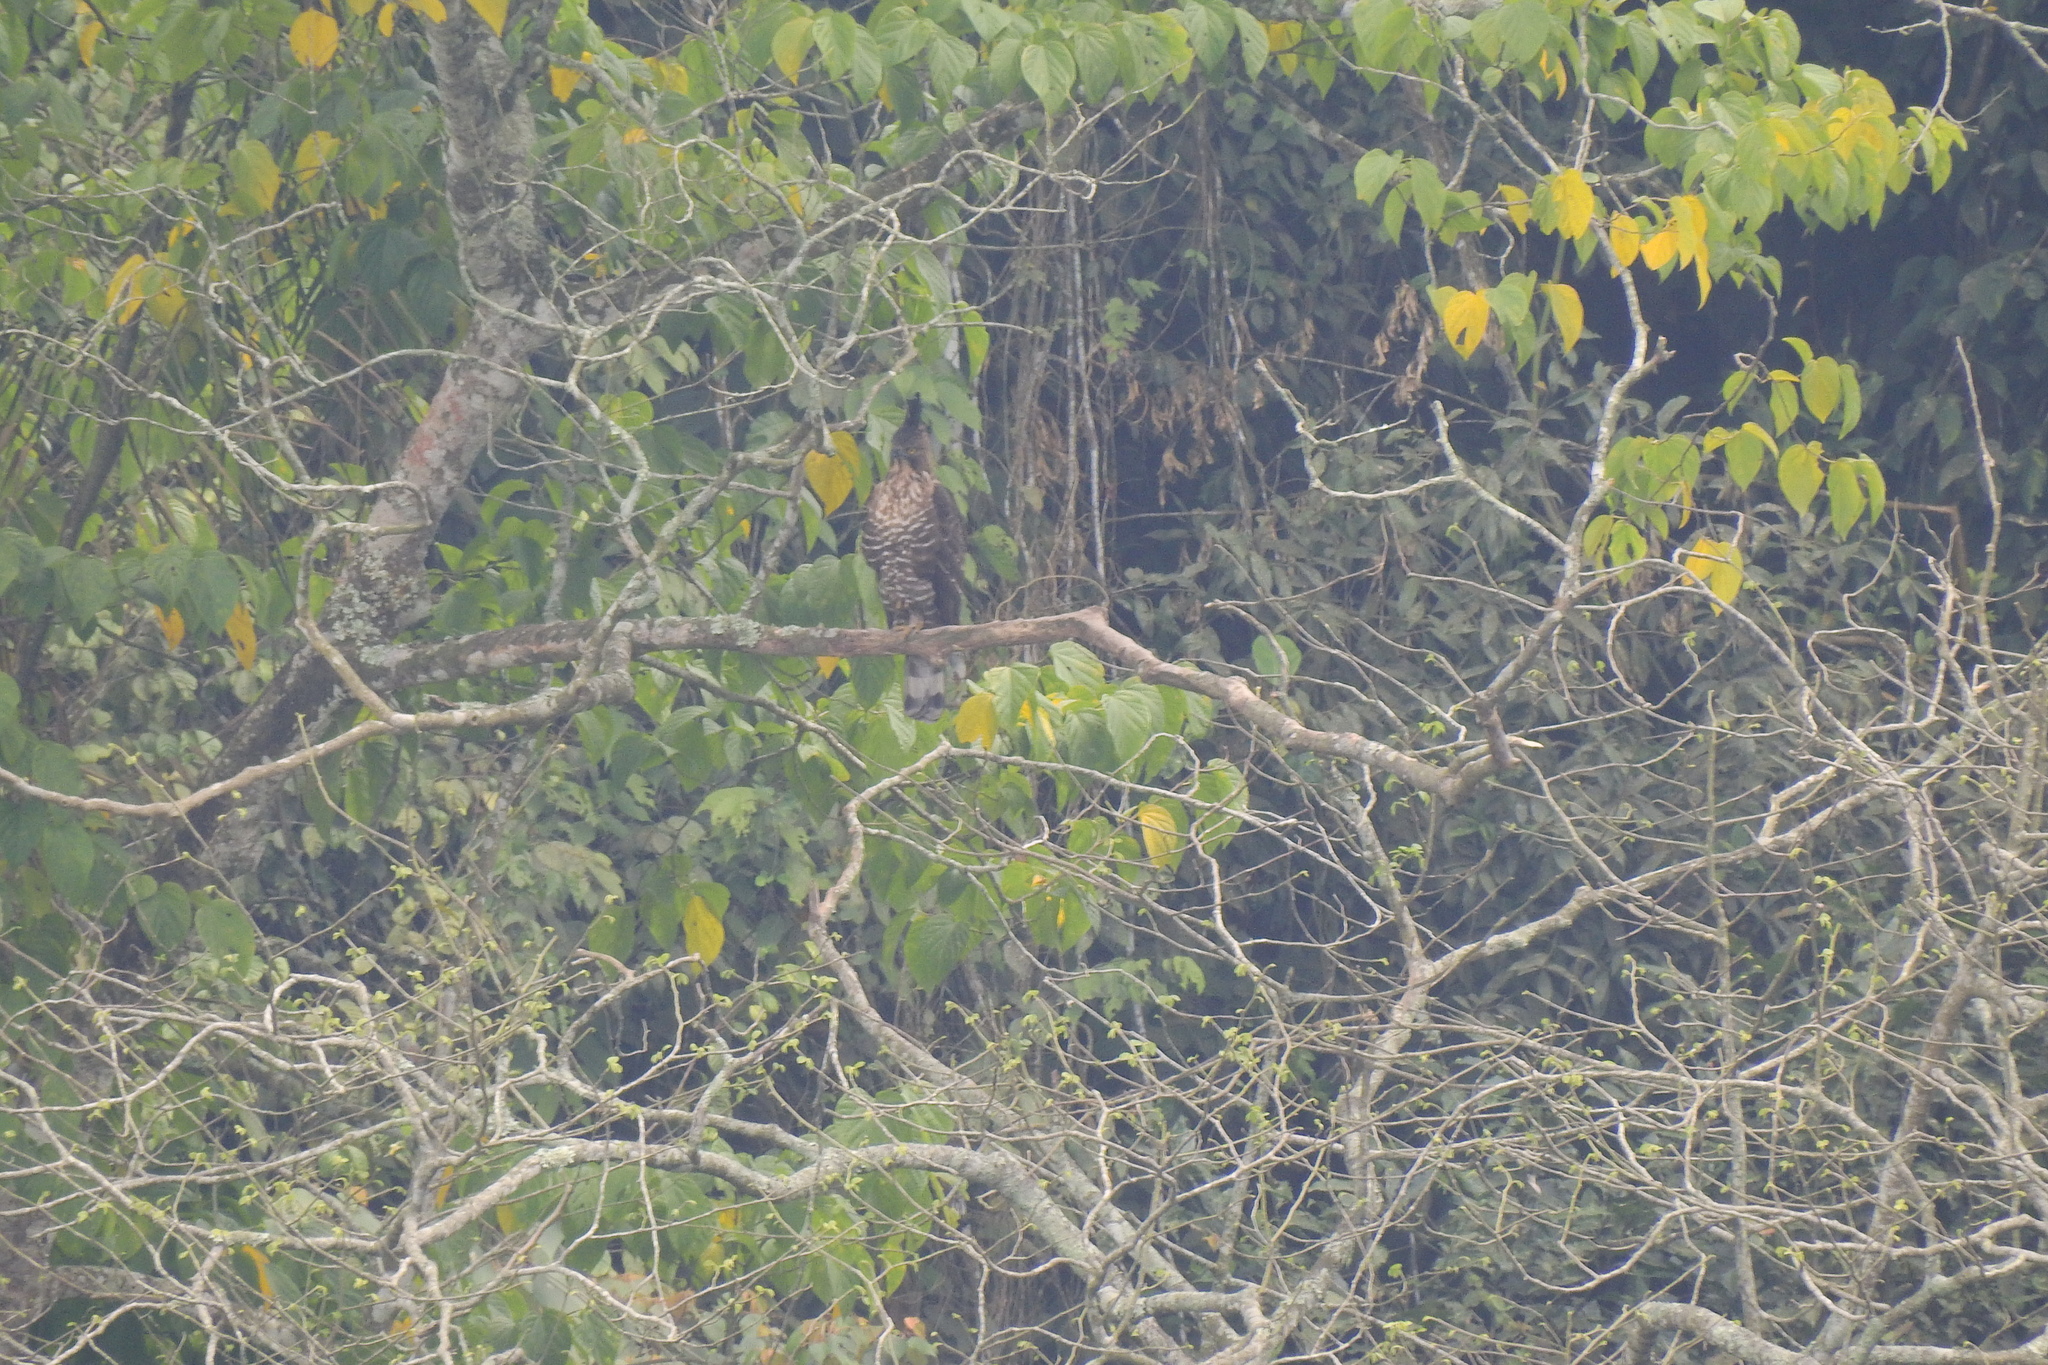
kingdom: Animalia
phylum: Chordata
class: Aves
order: Accipitriformes
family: Accipitridae
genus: Nisaetus
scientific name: Nisaetus bartelsi
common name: Javan hawk-eagle
